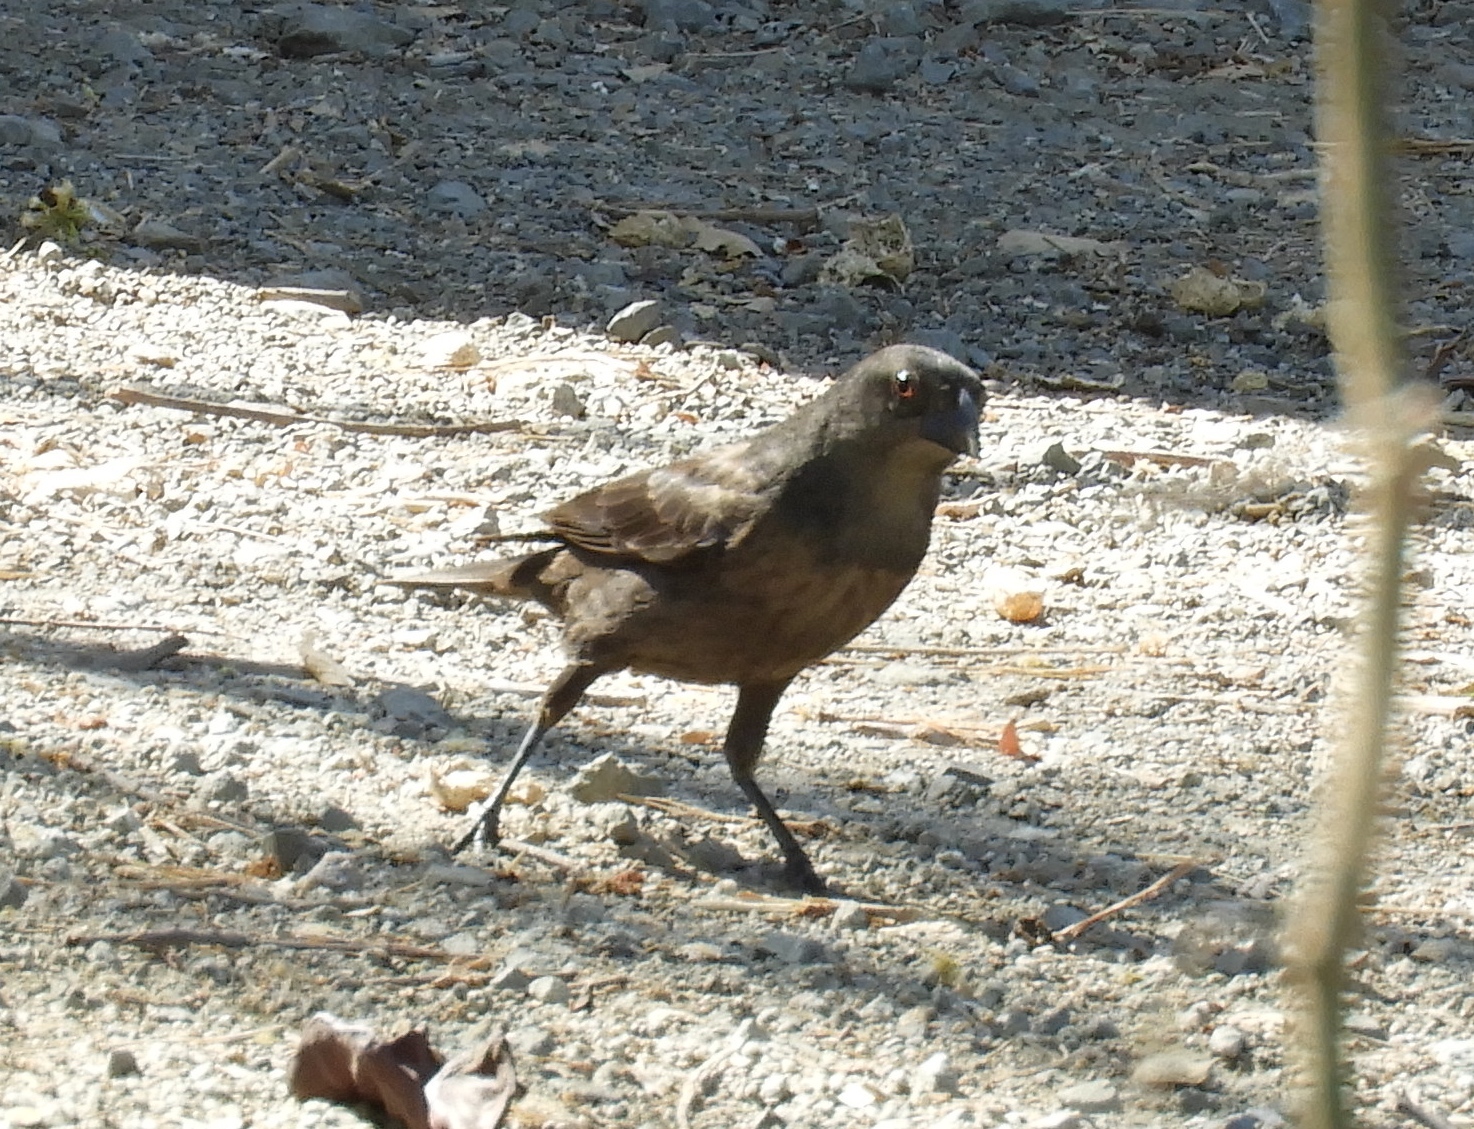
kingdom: Animalia
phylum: Chordata
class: Aves
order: Passeriformes
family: Icteridae
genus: Molothrus
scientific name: Molothrus aeneus
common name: Bronzed cowbird
